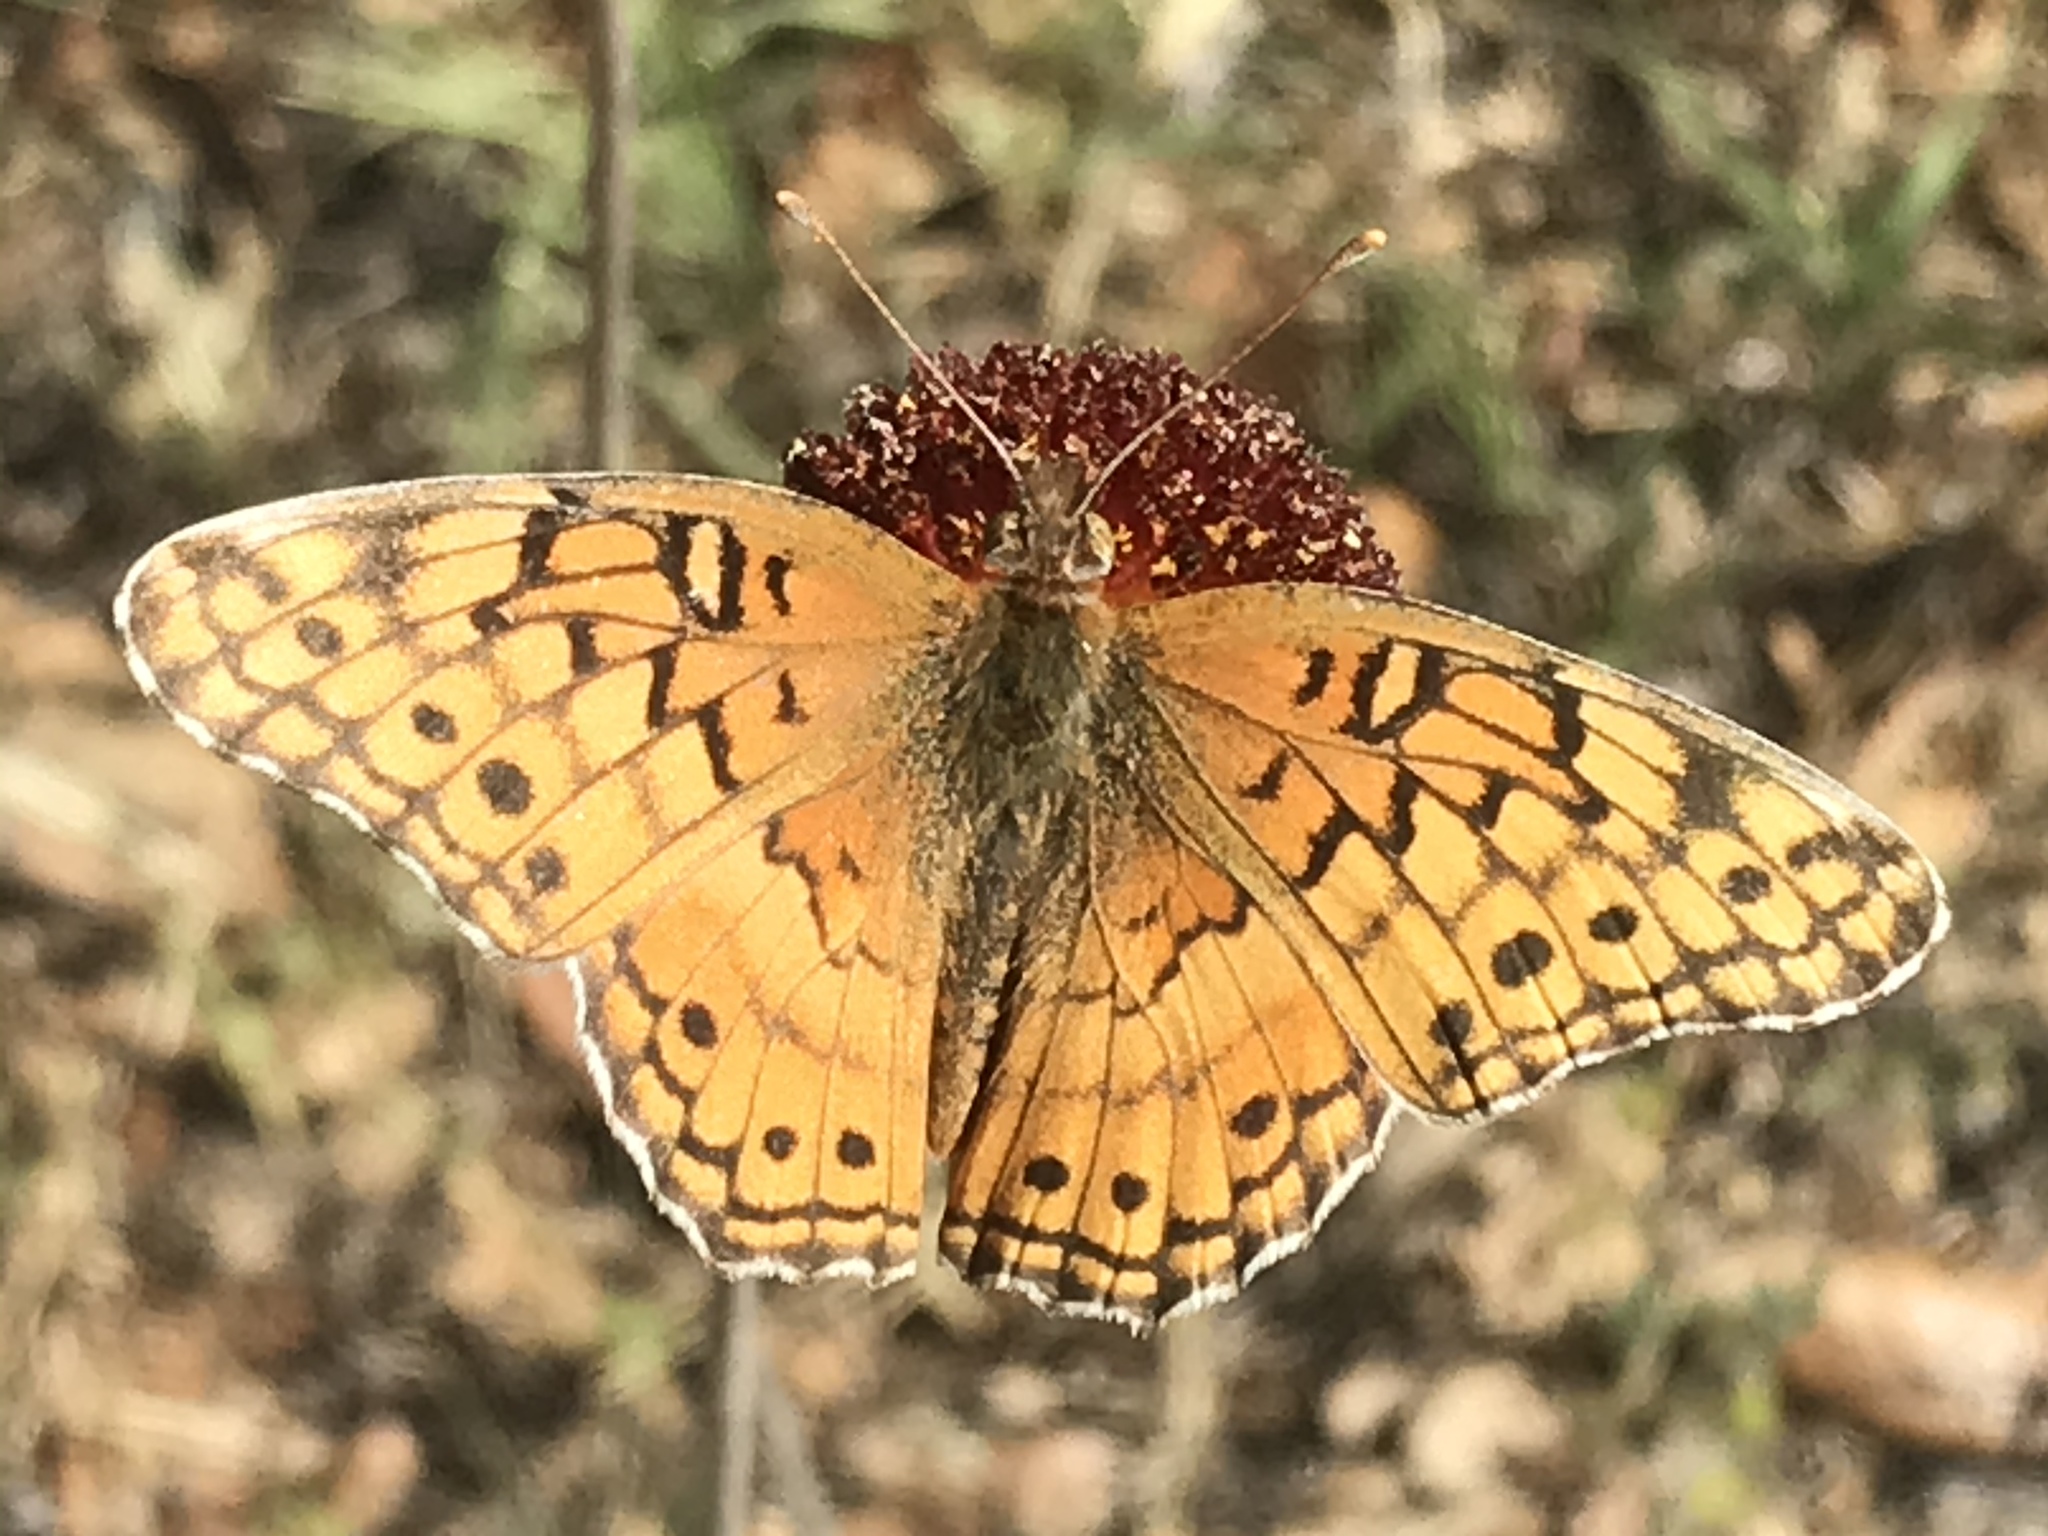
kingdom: Animalia
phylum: Arthropoda
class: Insecta
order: Lepidoptera
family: Nymphalidae
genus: Euptoieta
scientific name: Euptoieta claudia
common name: Variegated fritillary
